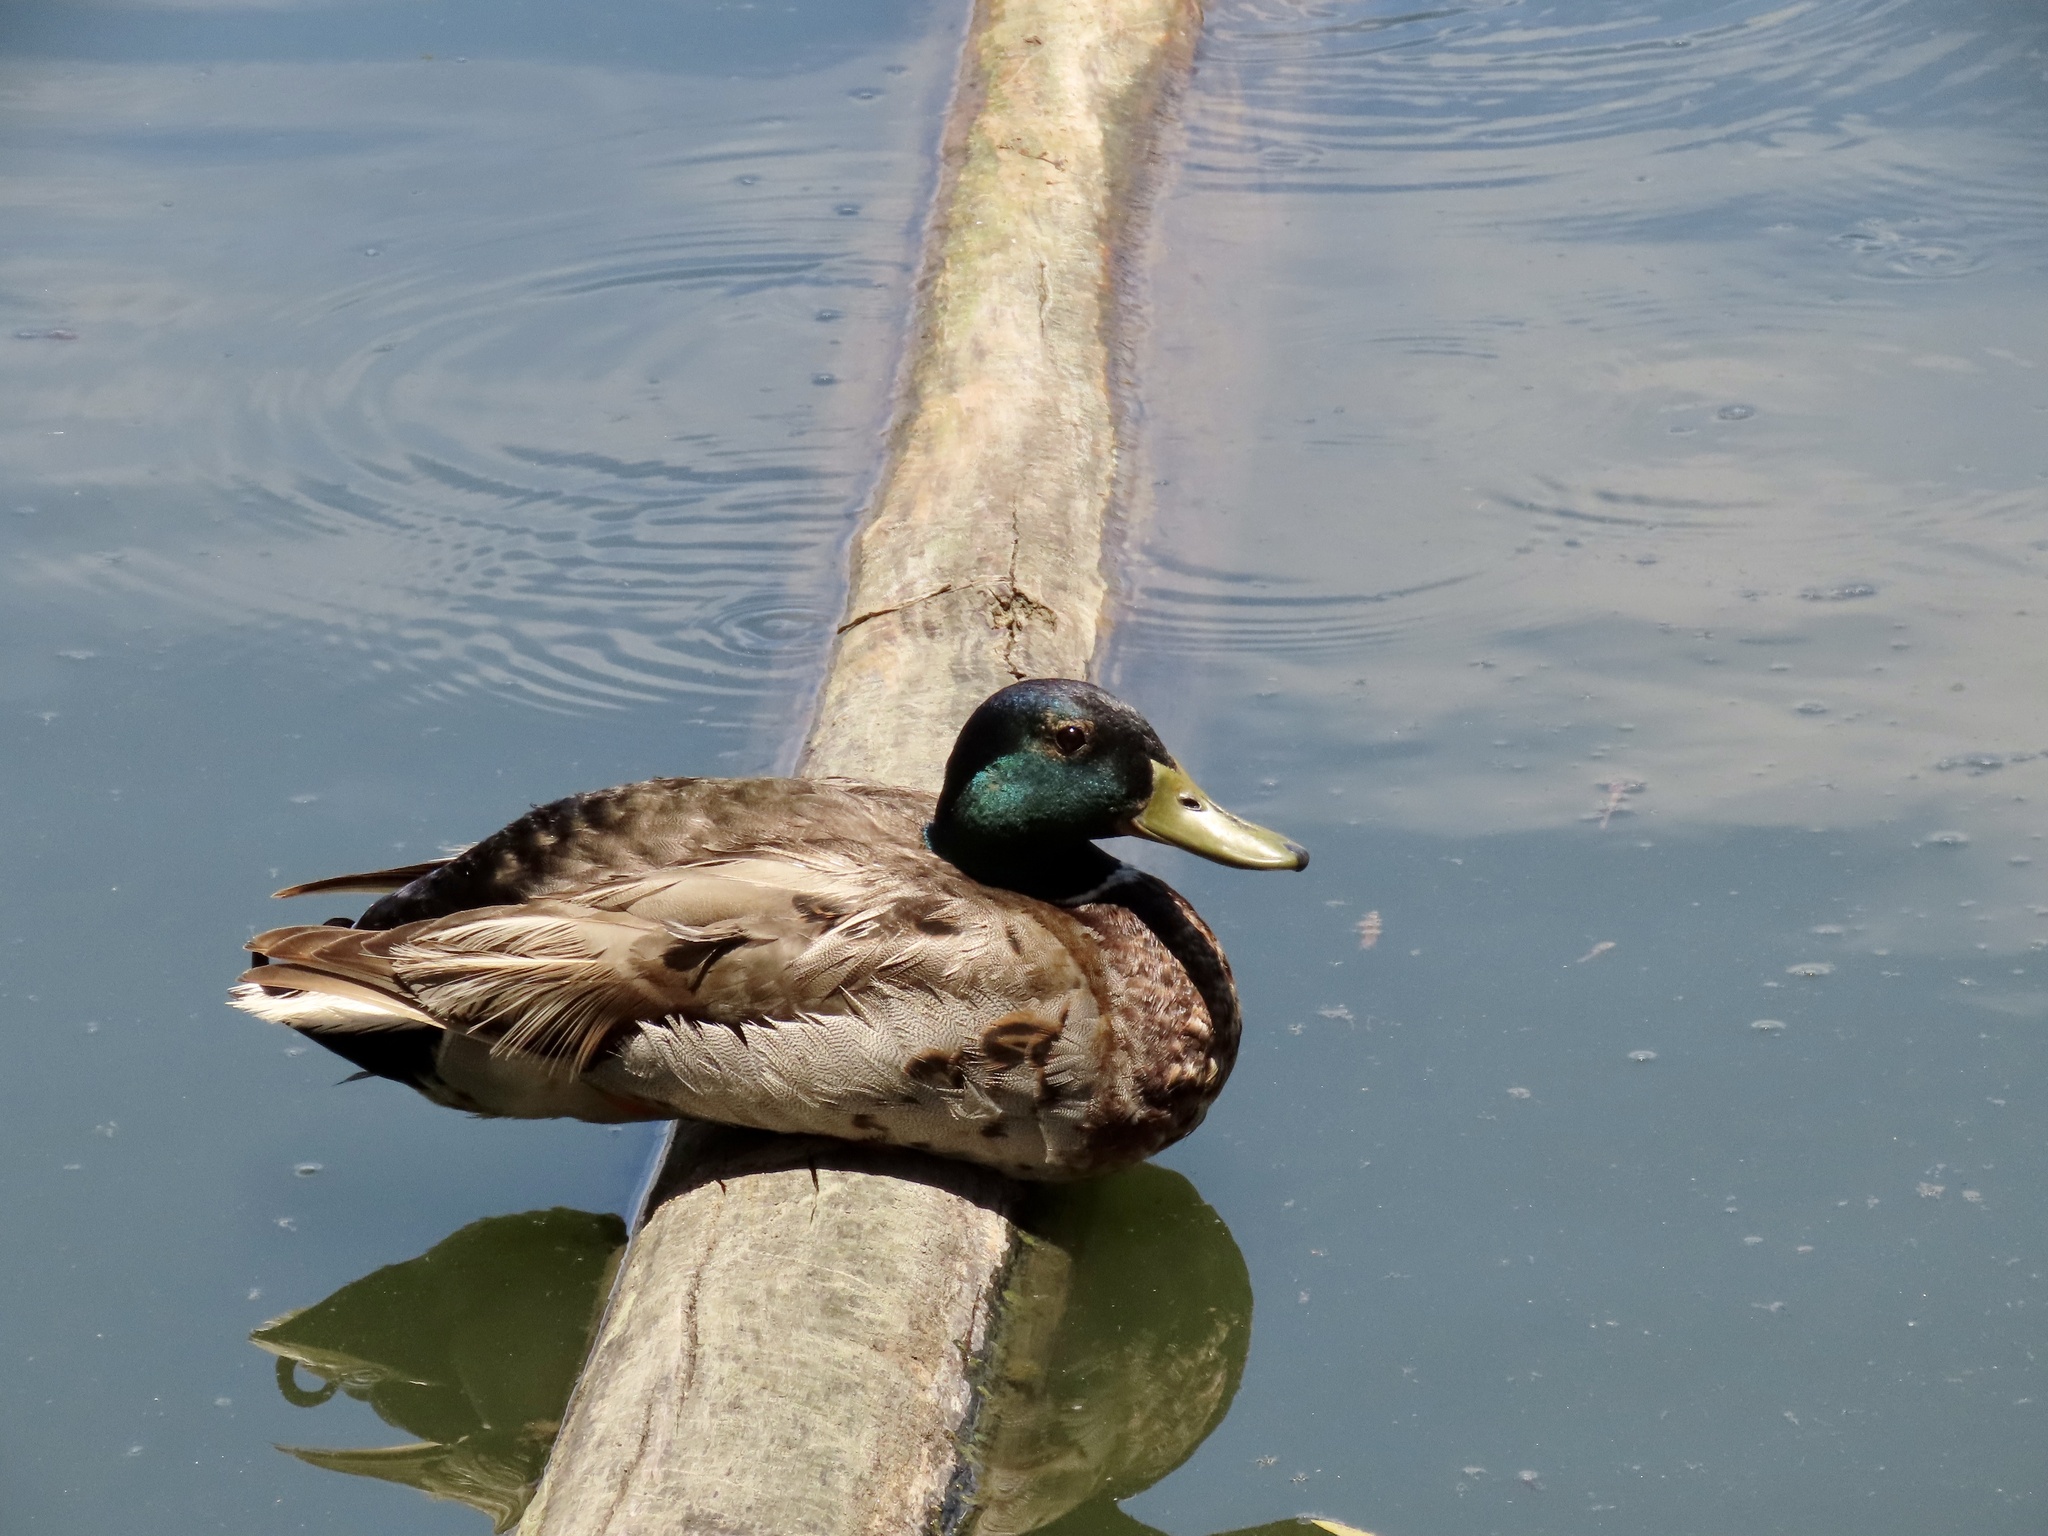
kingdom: Animalia
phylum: Chordata
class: Aves
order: Anseriformes
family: Anatidae
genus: Anas
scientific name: Anas platyrhynchos
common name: Mallard
